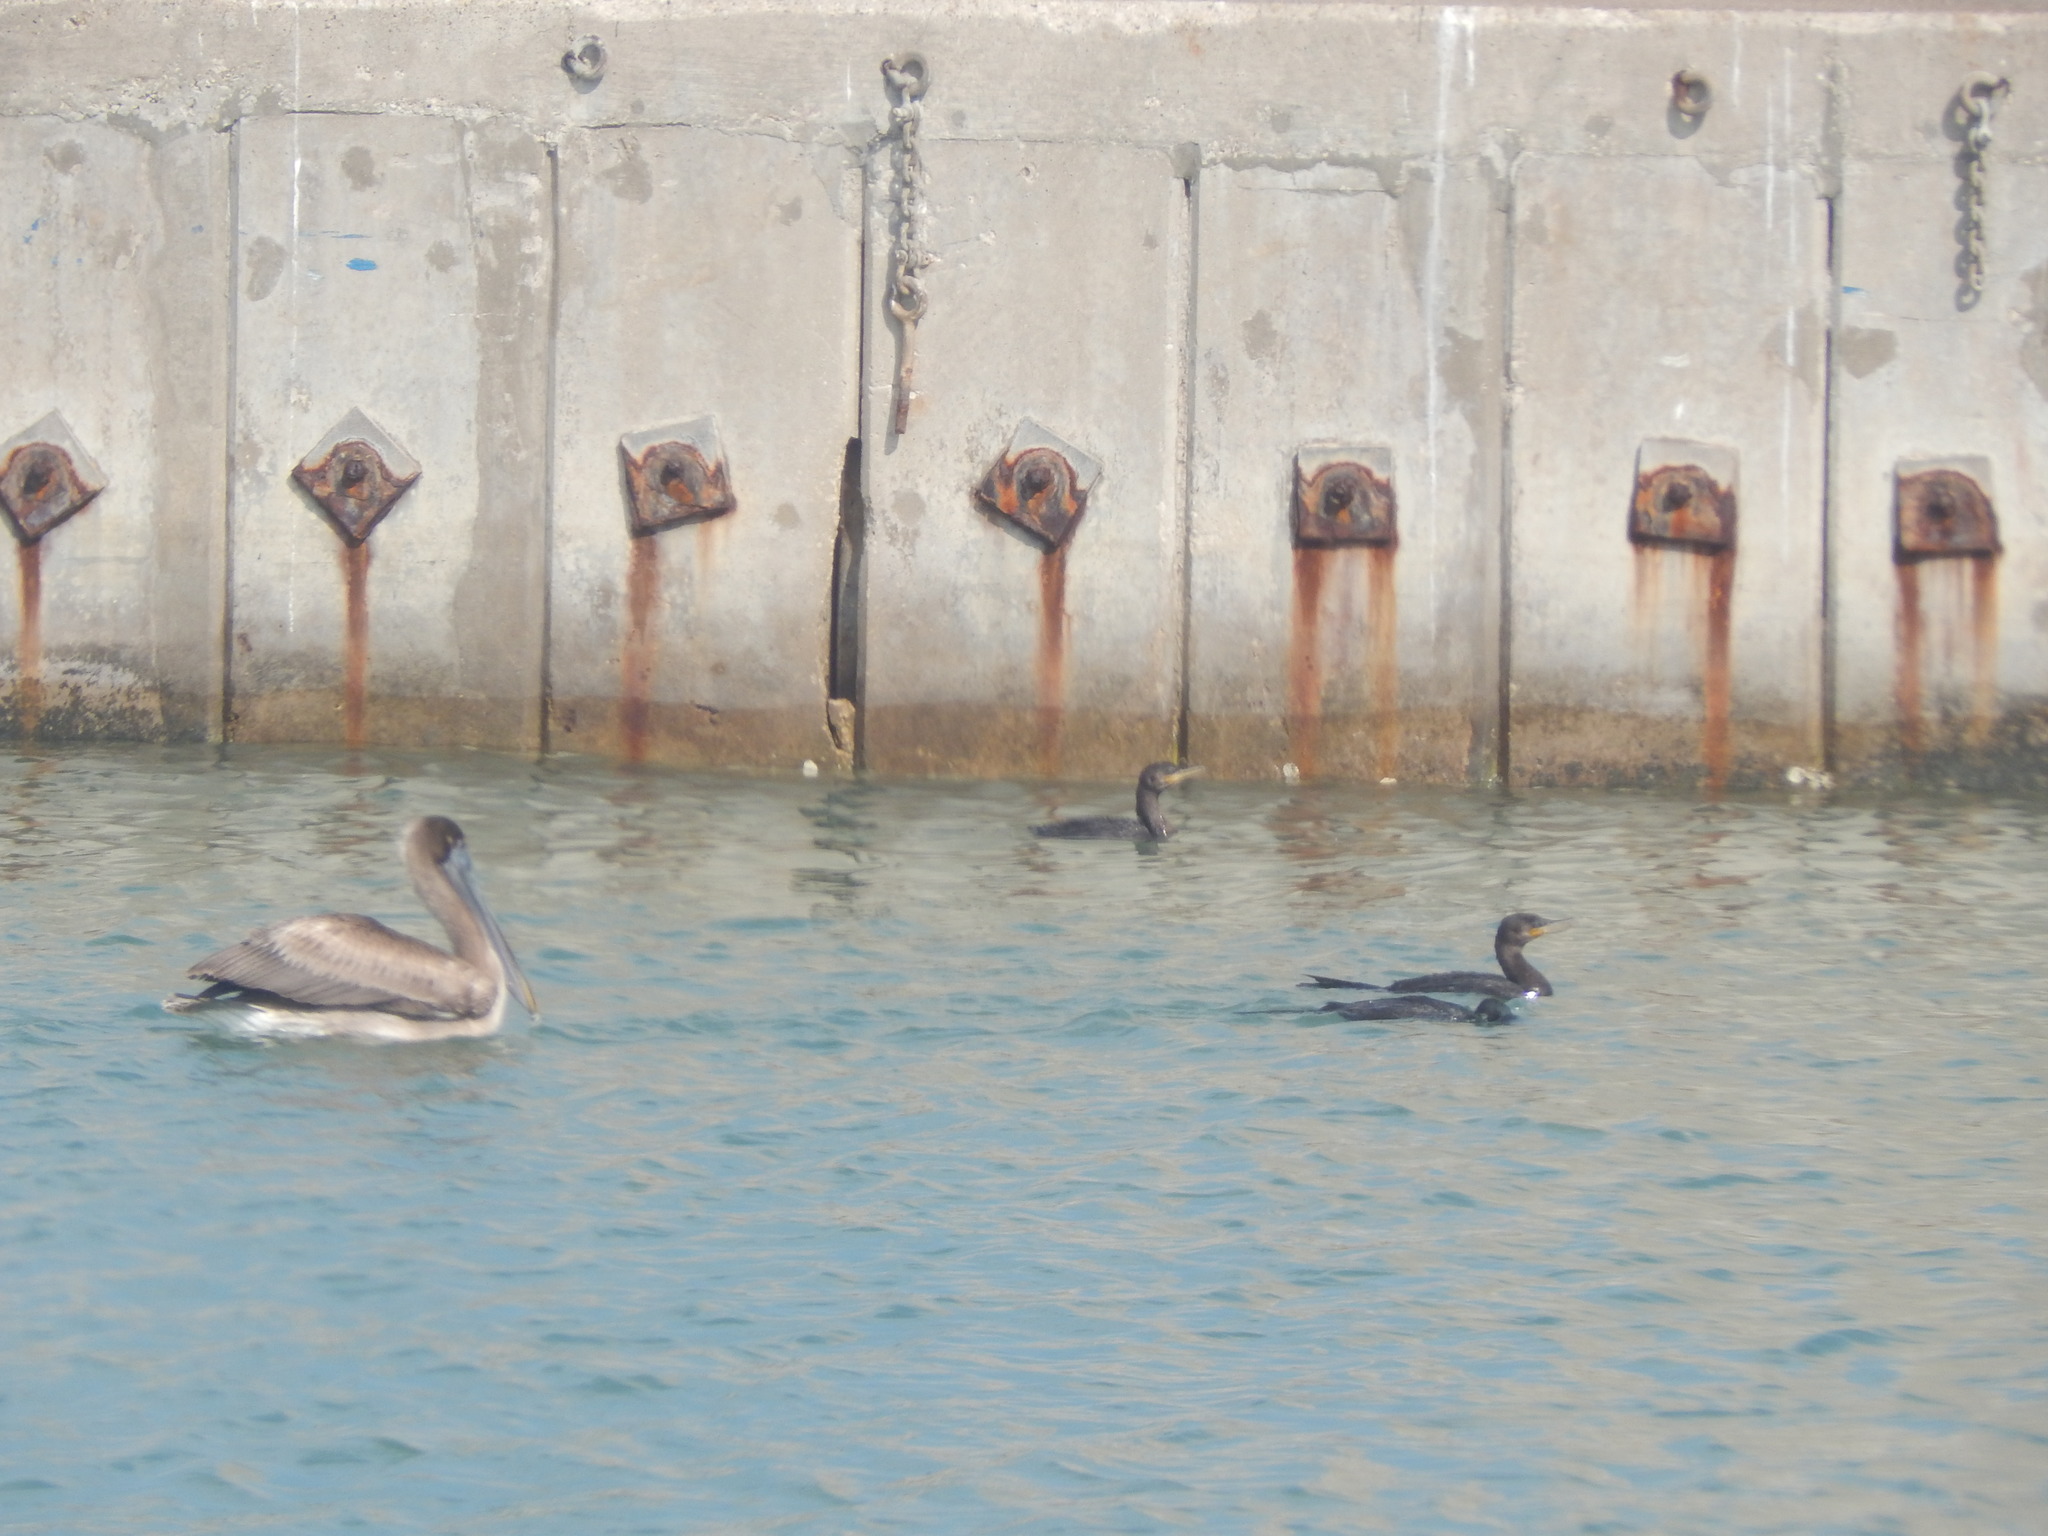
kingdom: Animalia
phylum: Chordata
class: Aves
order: Suliformes
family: Phalacrocoracidae
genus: Phalacrocorax
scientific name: Phalacrocorax brasilianus
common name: Neotropic cormorant
